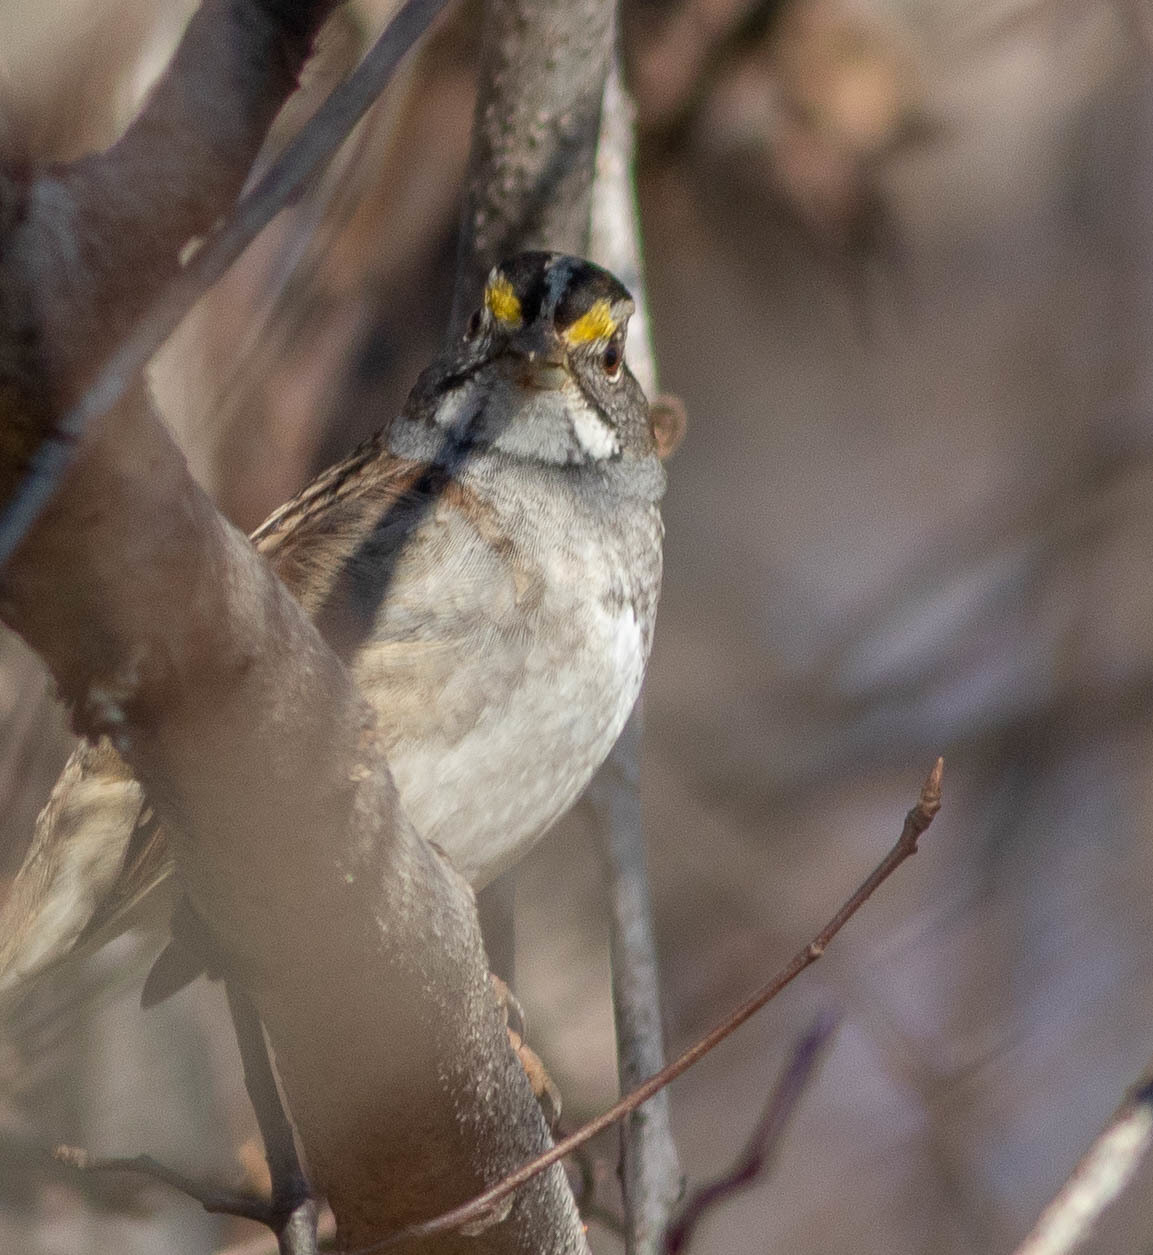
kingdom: Animalia
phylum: Chordata
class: Aves
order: Passeriformes
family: Passerellidae
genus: Zonotrichia
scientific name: Zonotrichia albicollis
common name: White-throated sparrow
